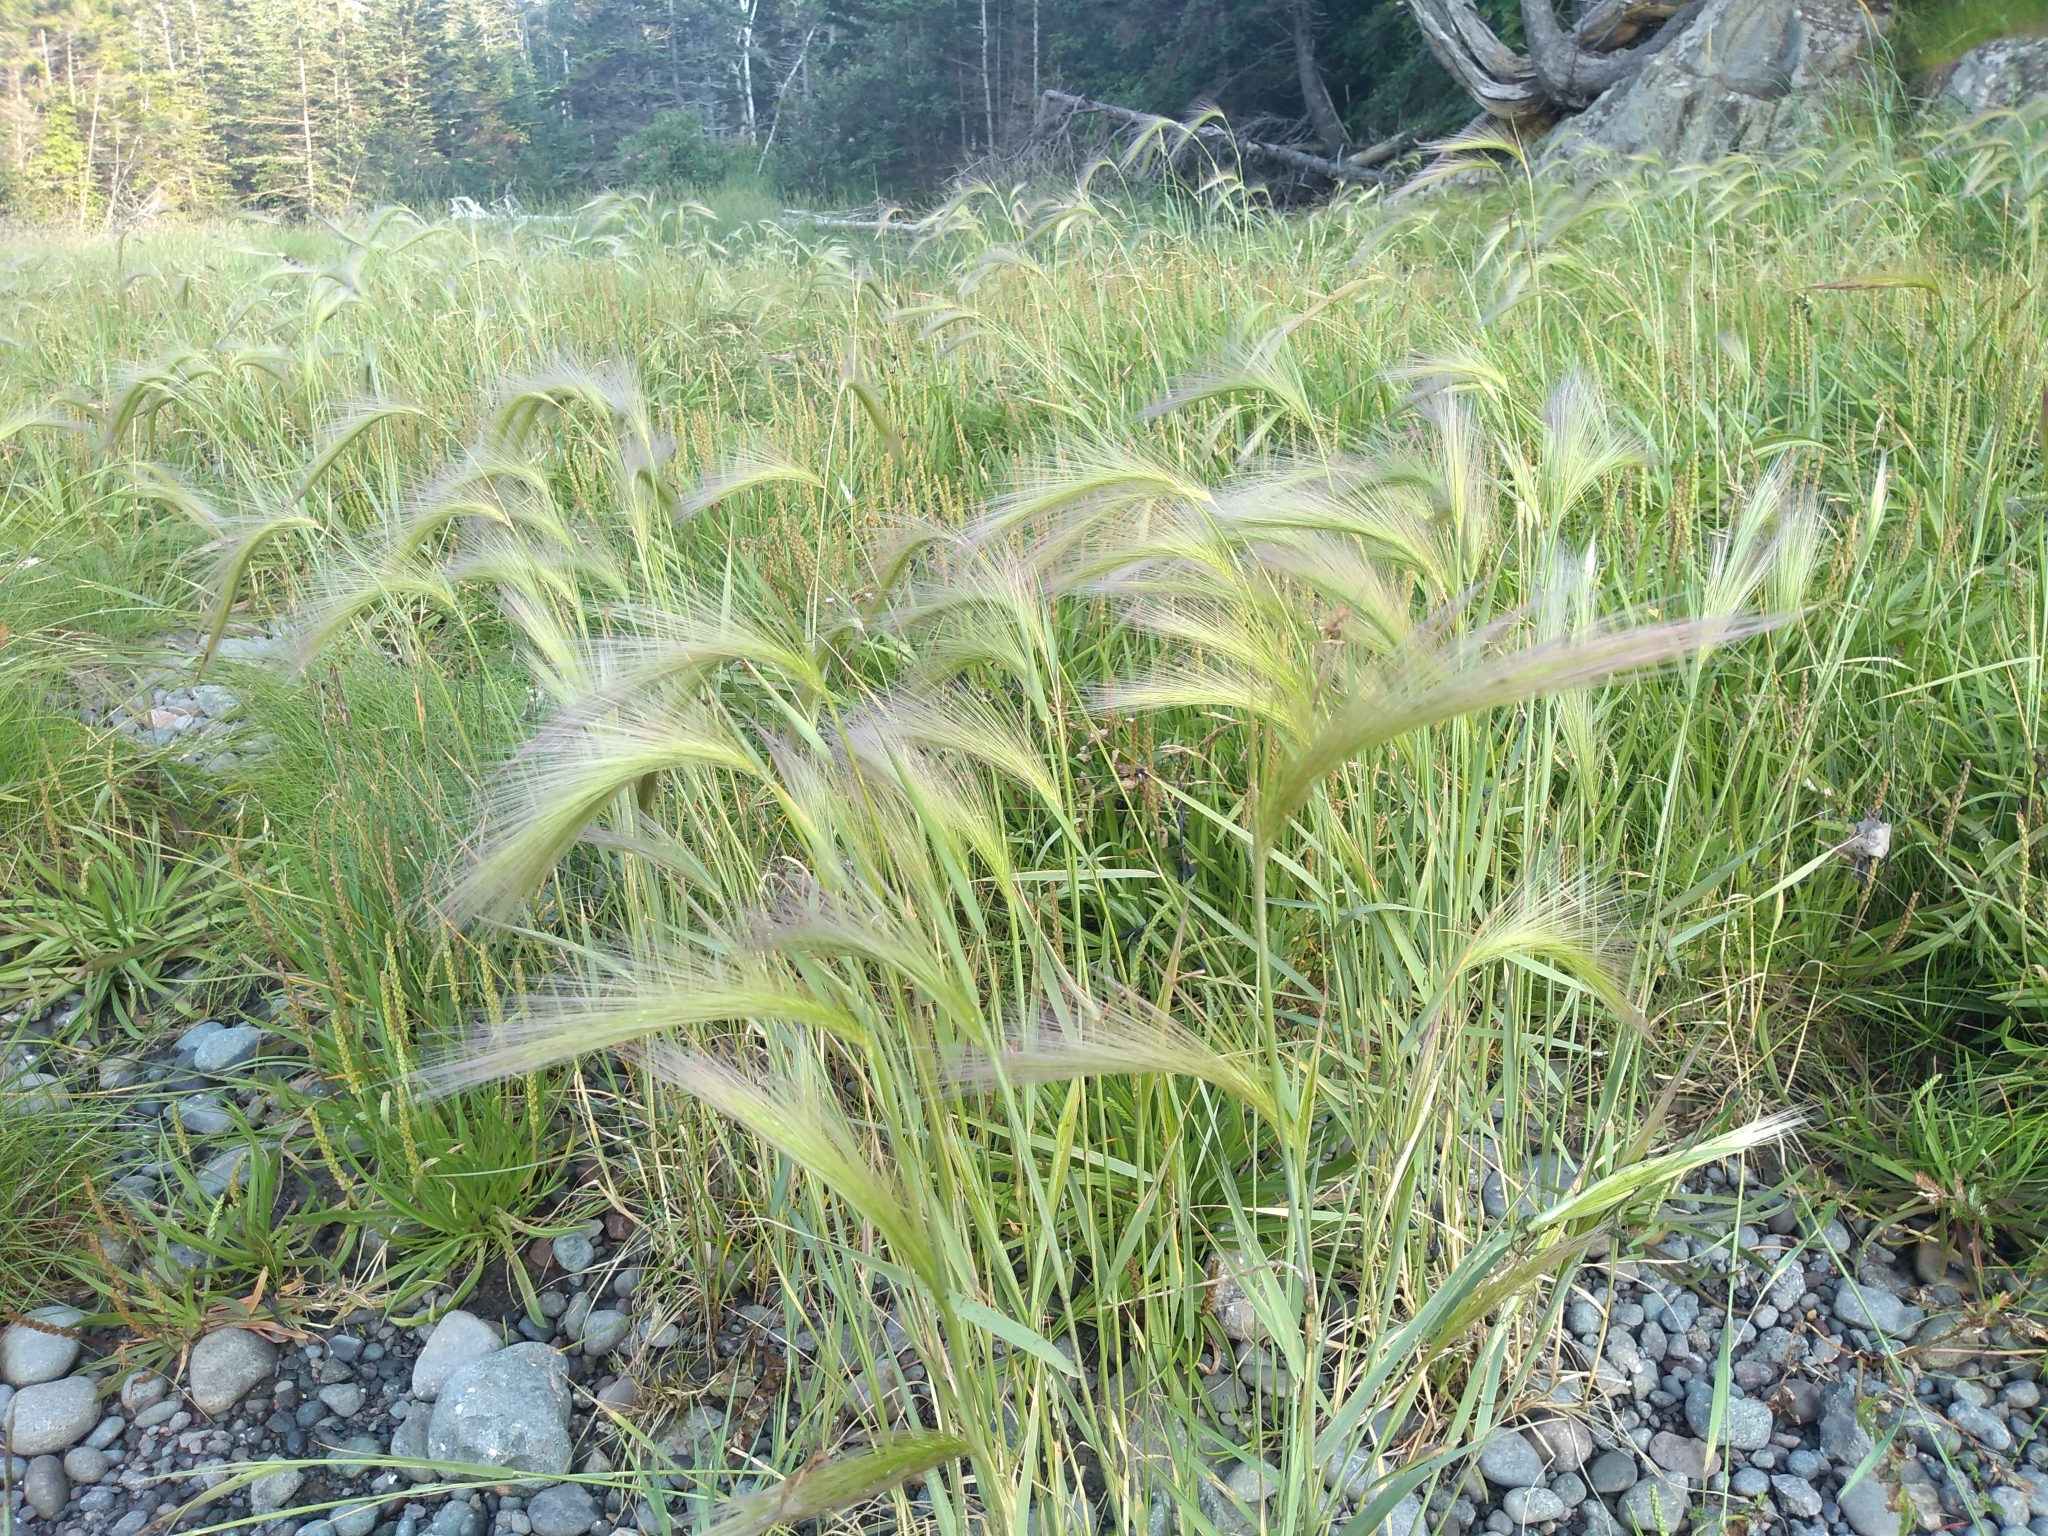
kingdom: Plantae
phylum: Tracheophyta
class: Liliopsida
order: Poales
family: Poaceae
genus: Hordeum
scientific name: Hordeum jubatum
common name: Foxtail barley
